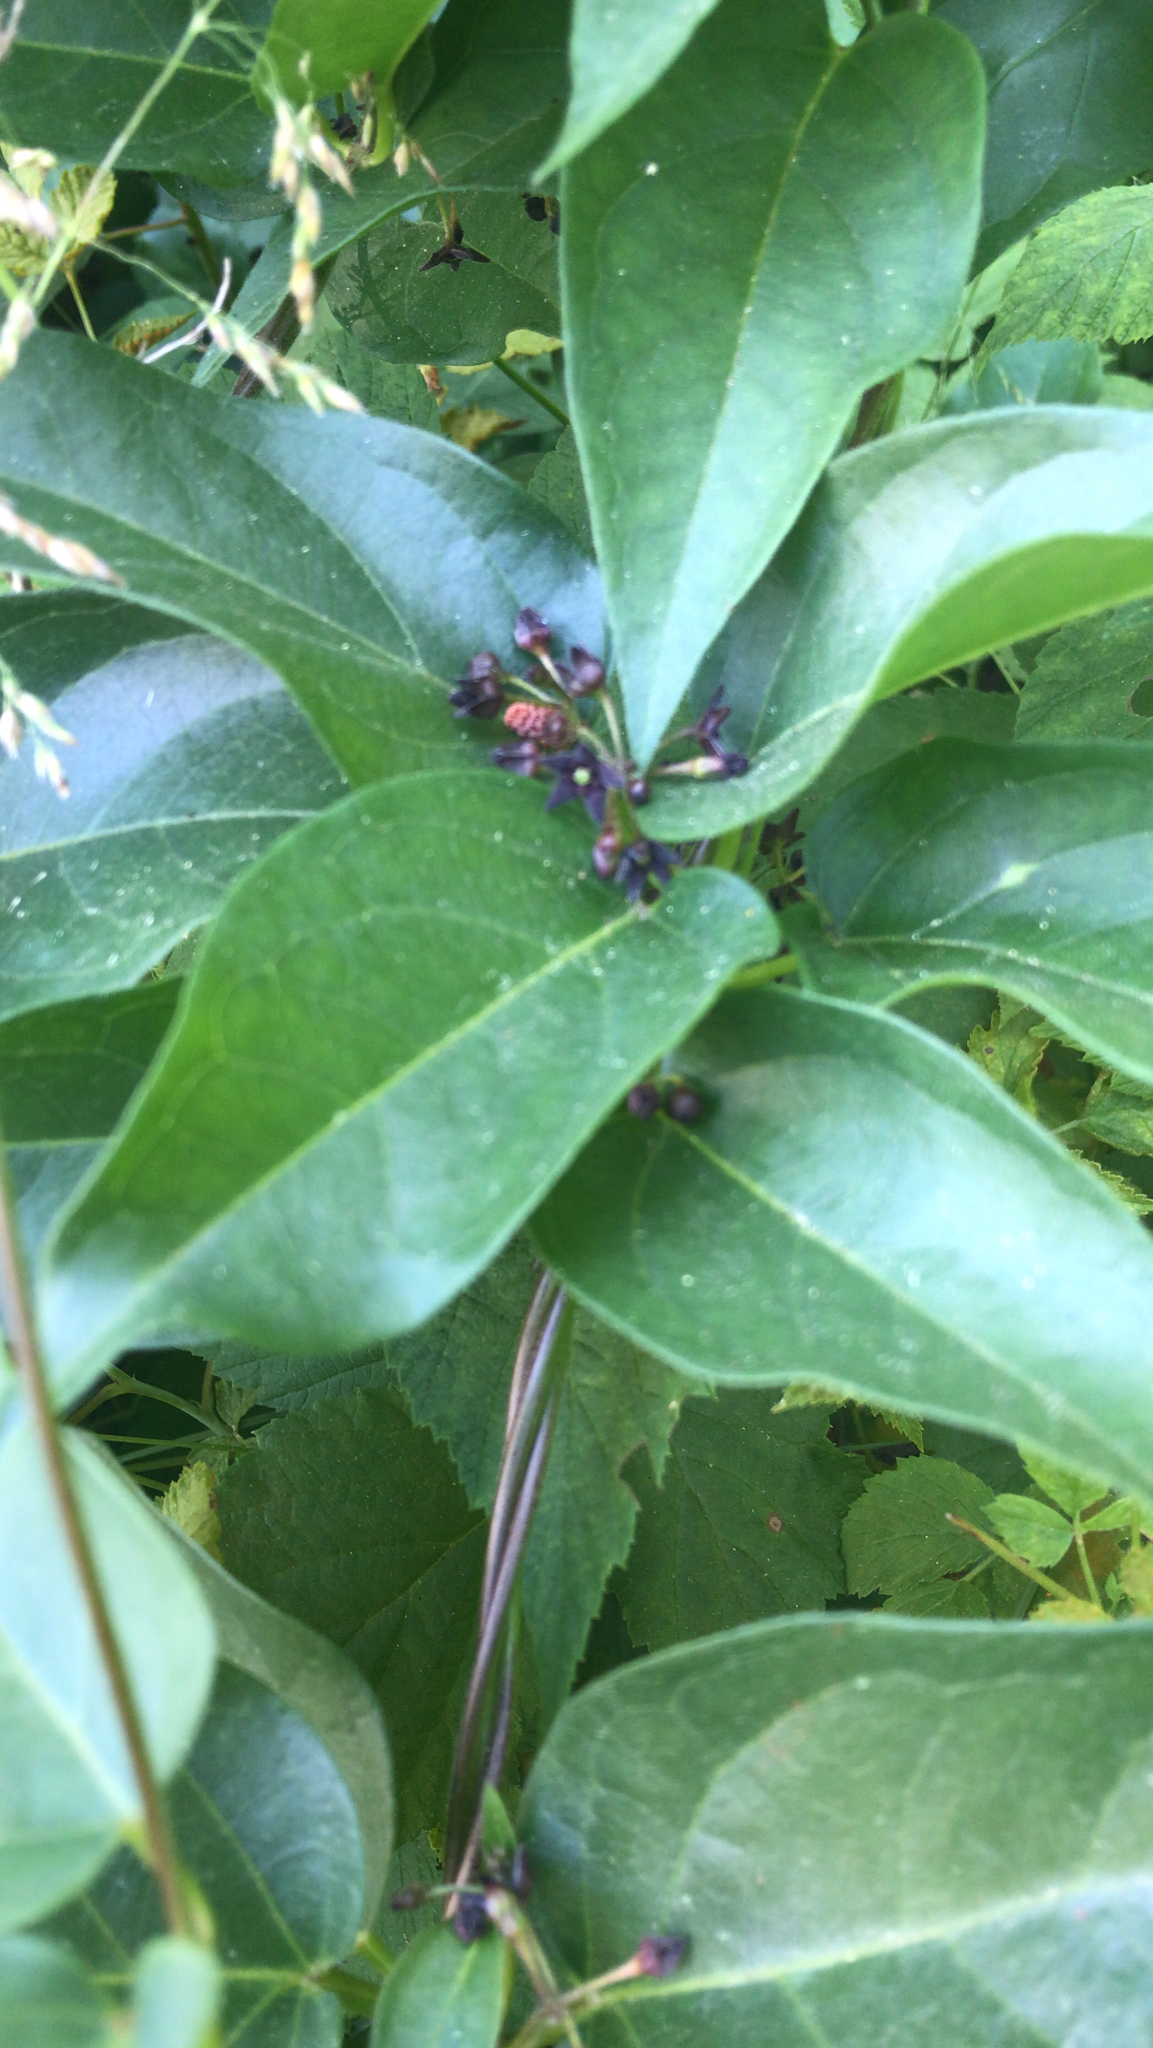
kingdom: Plantae
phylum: Tracheophyta
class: Magnoliopsida
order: Gentianales
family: Apocynaceae
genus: Vincetoxicum
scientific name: Vincetoxicum nigrum
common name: Black swallow-wort
